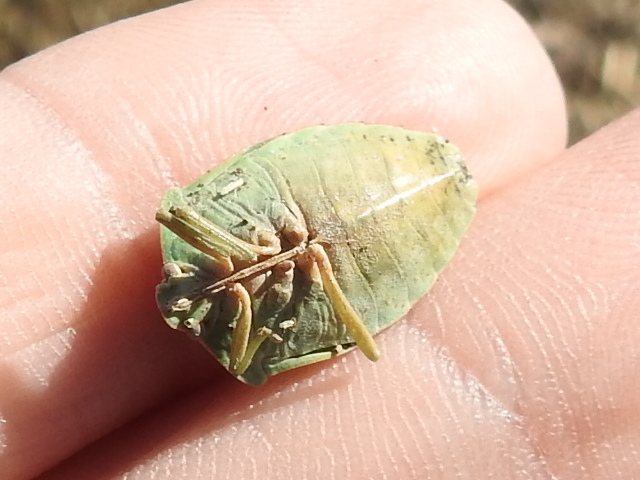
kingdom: Animalia
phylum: Arthropoda
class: Insecta
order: Hemiptera
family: Pentatomidae
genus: Chinavia
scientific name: Chinavia hilaris
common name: Green stink bug
